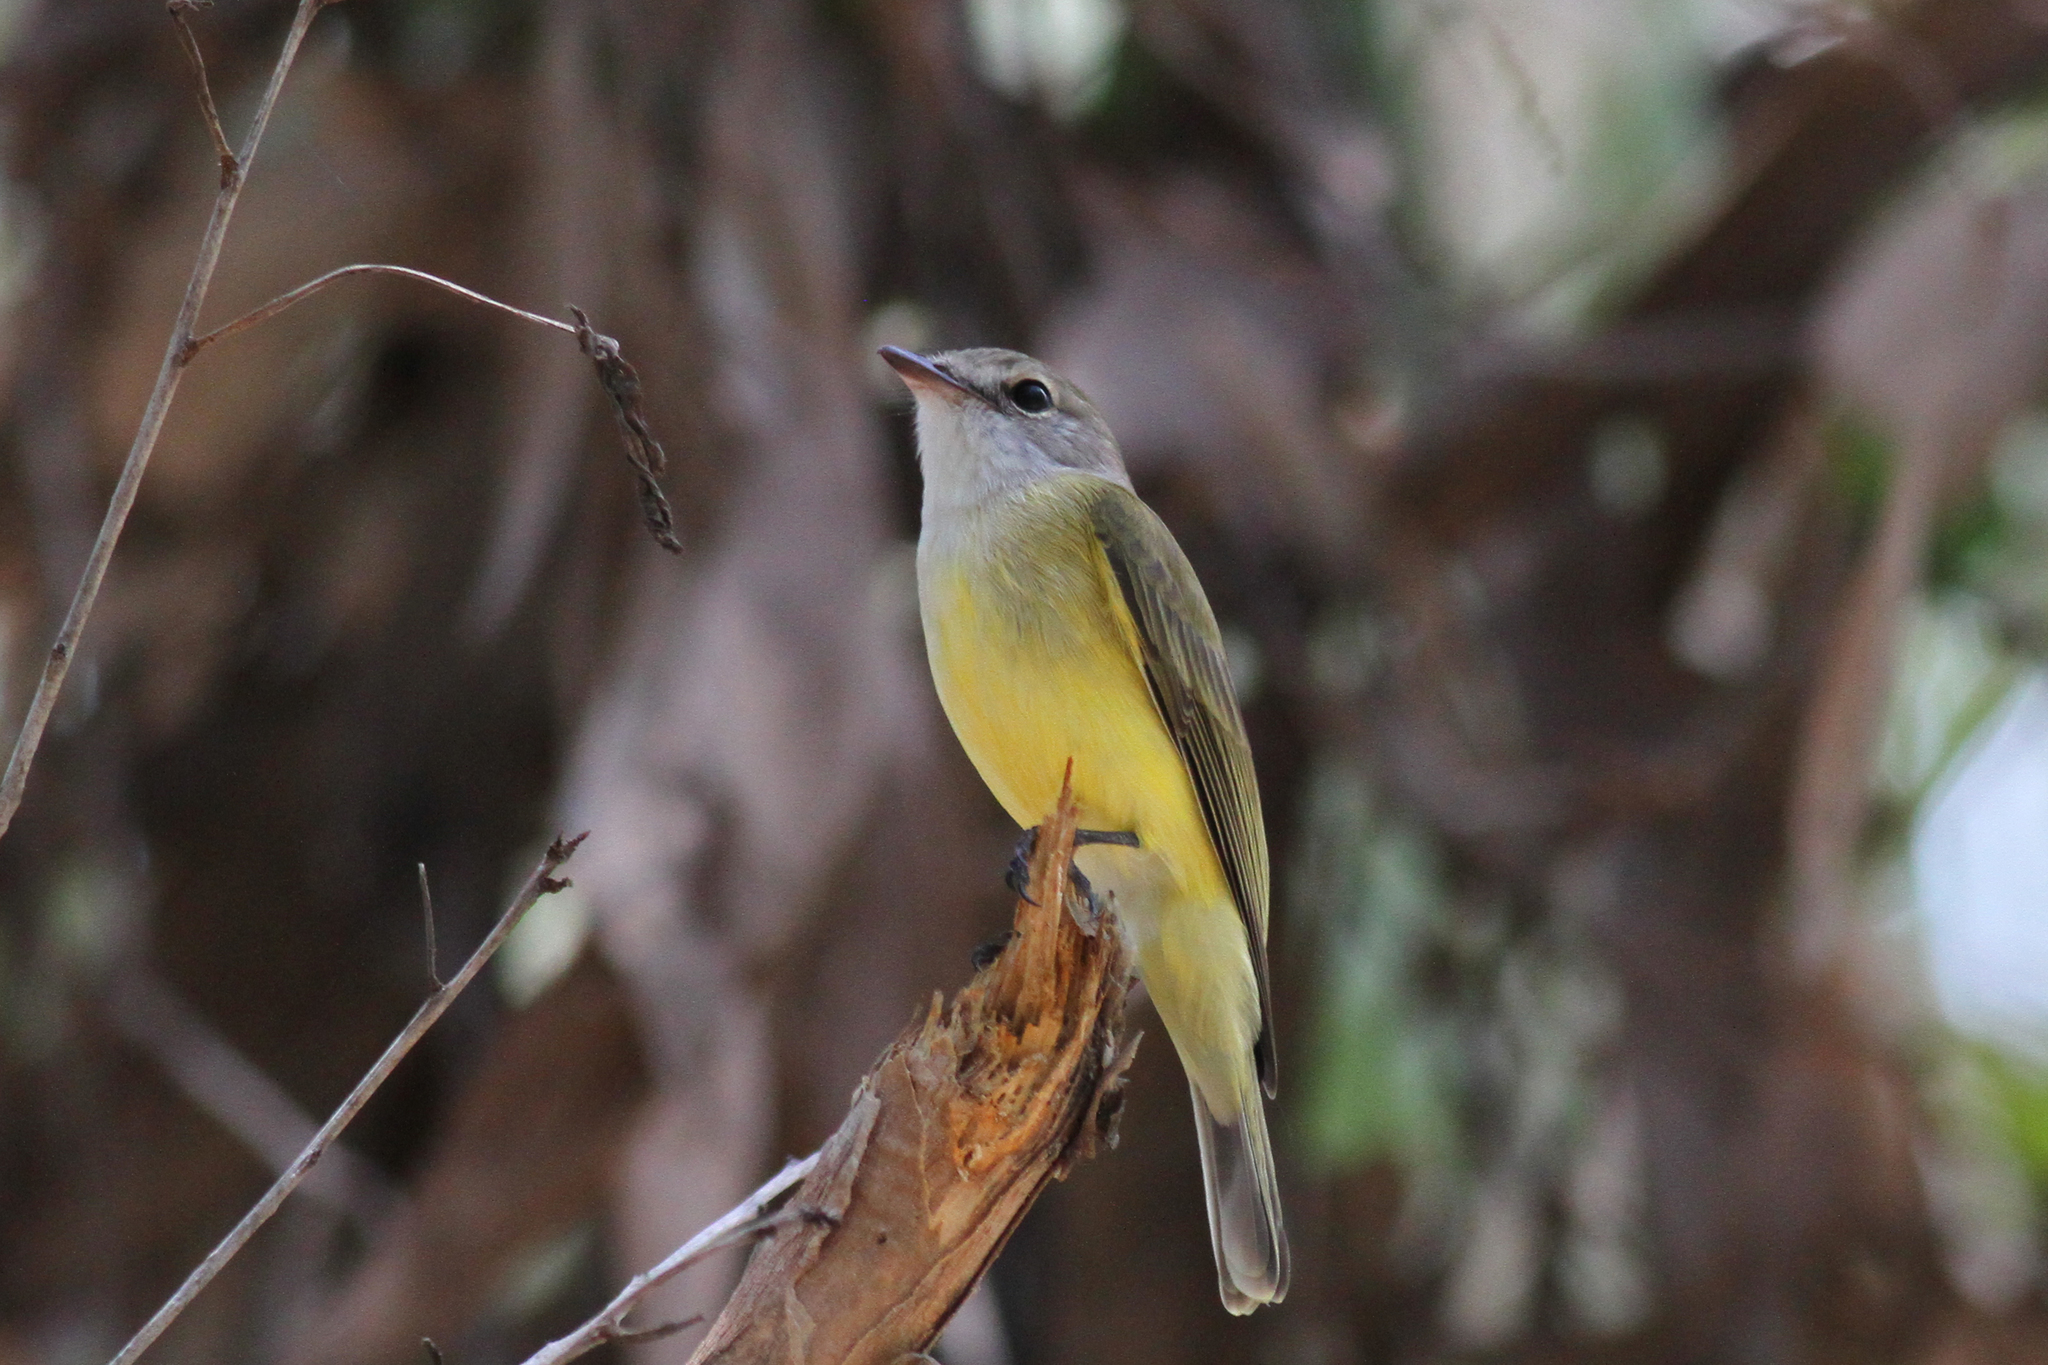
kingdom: Animalia
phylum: Chordata
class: Aves
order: Passeriformes
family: Petroicidae
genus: Microeca
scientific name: Microeca flavigaster
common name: Lemon-bellied flyrobin
